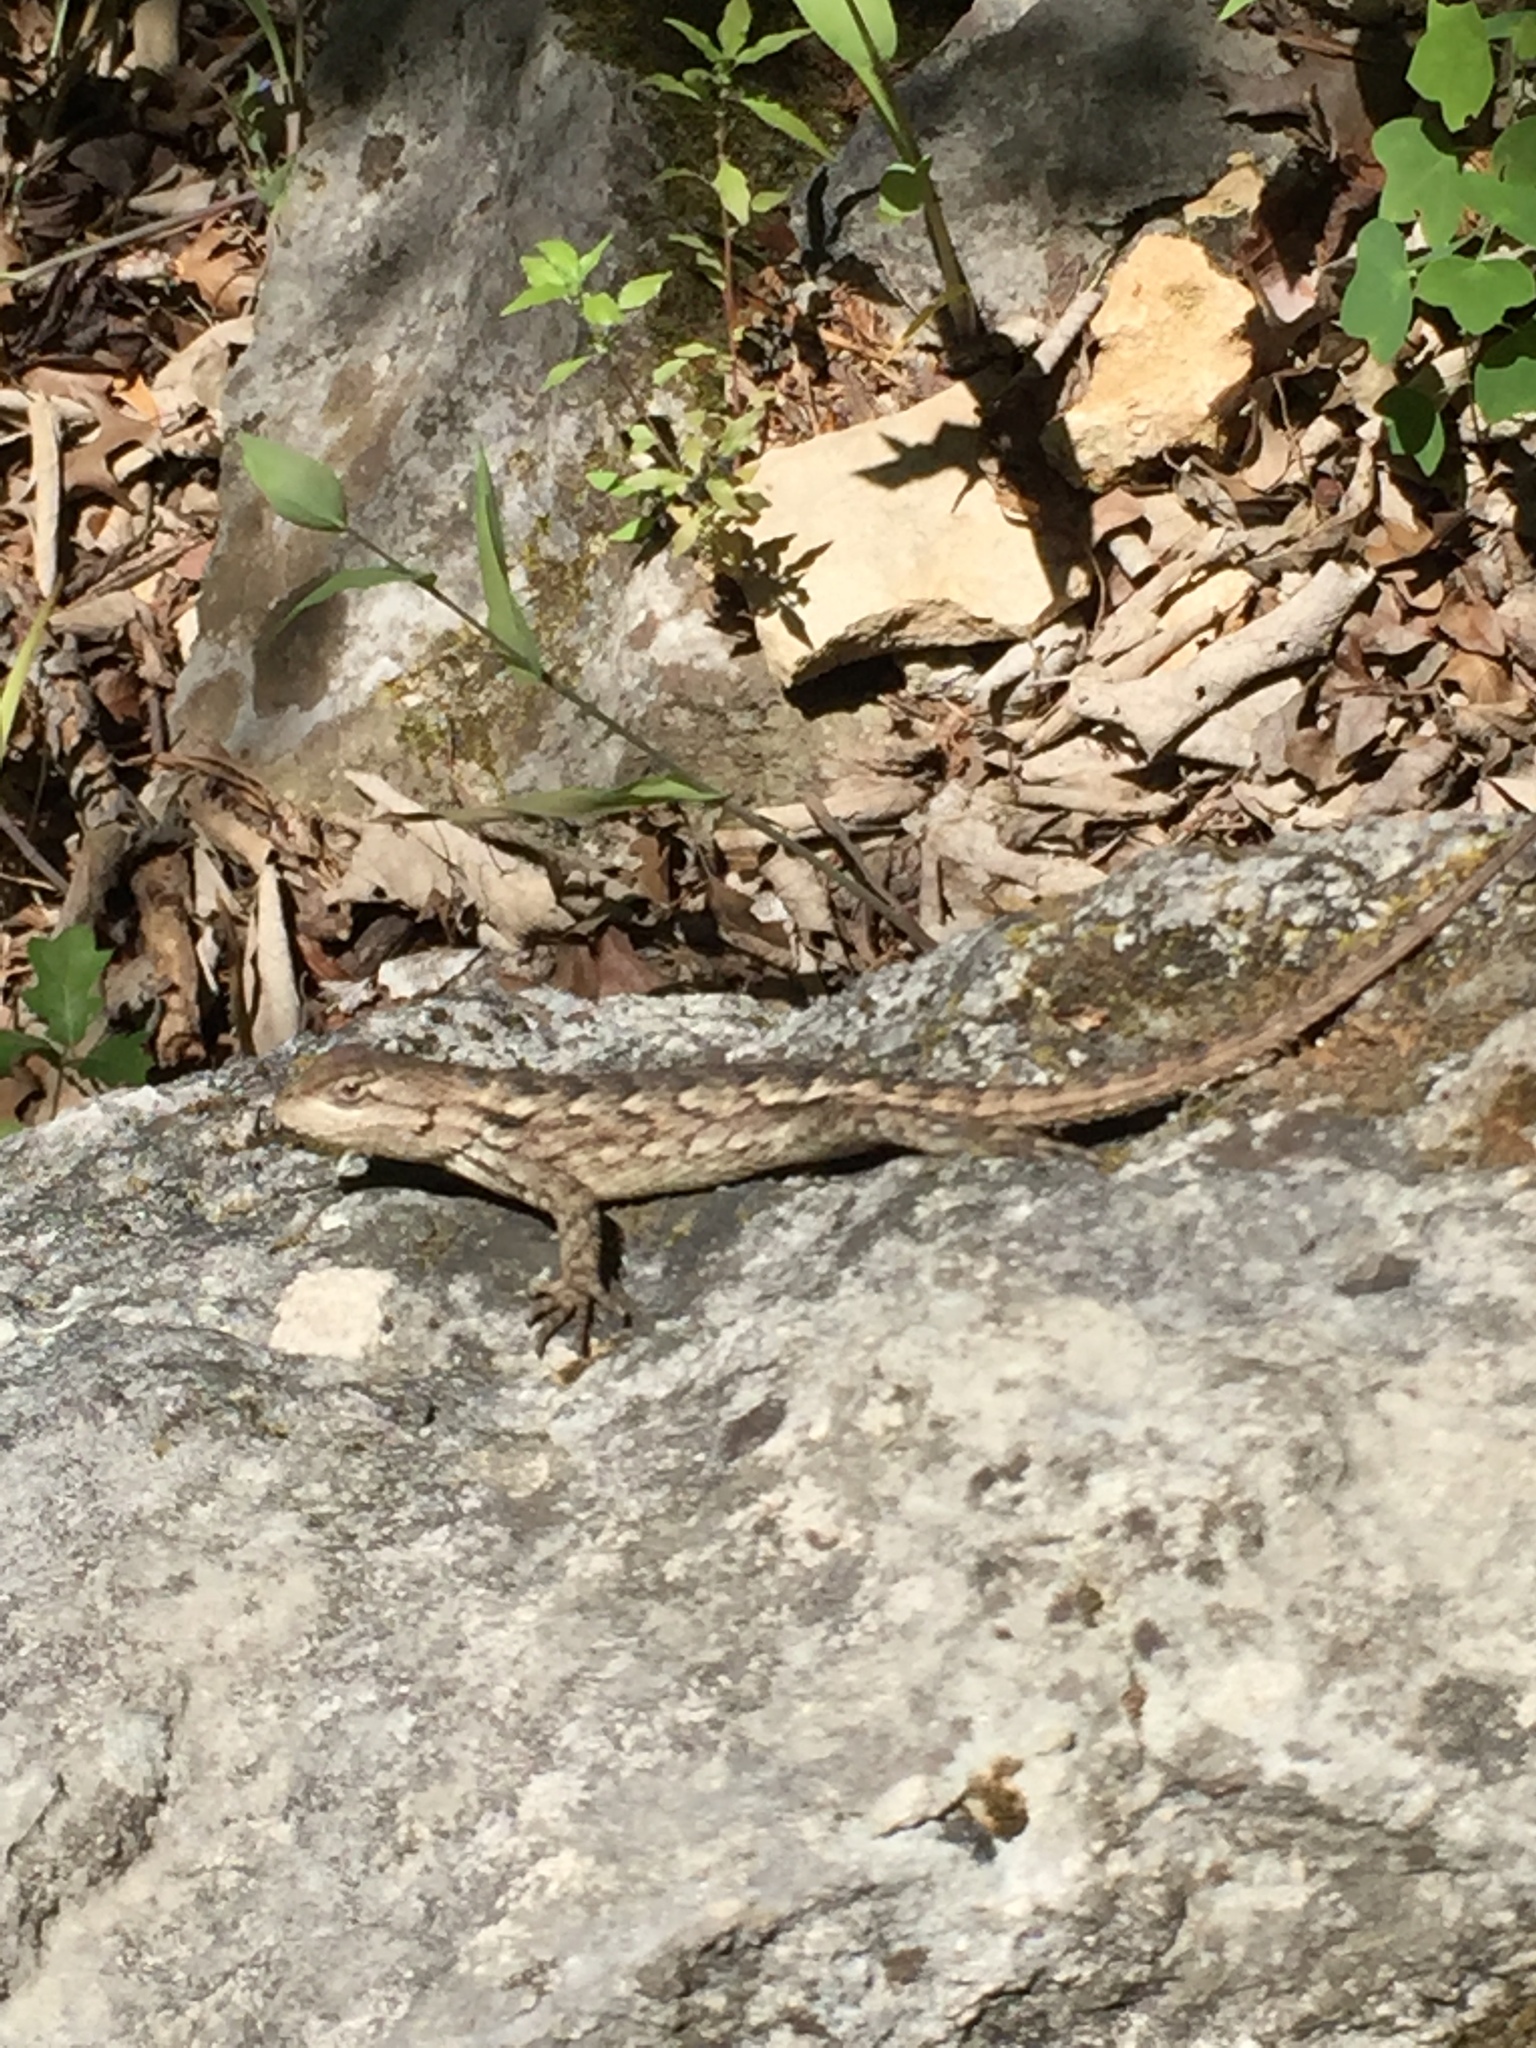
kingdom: Animalia
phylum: Chordata
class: Squamata
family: Phrynosomatidae
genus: Sceloporus
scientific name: Sceloporus olivaceus
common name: Texas spiny lizard
